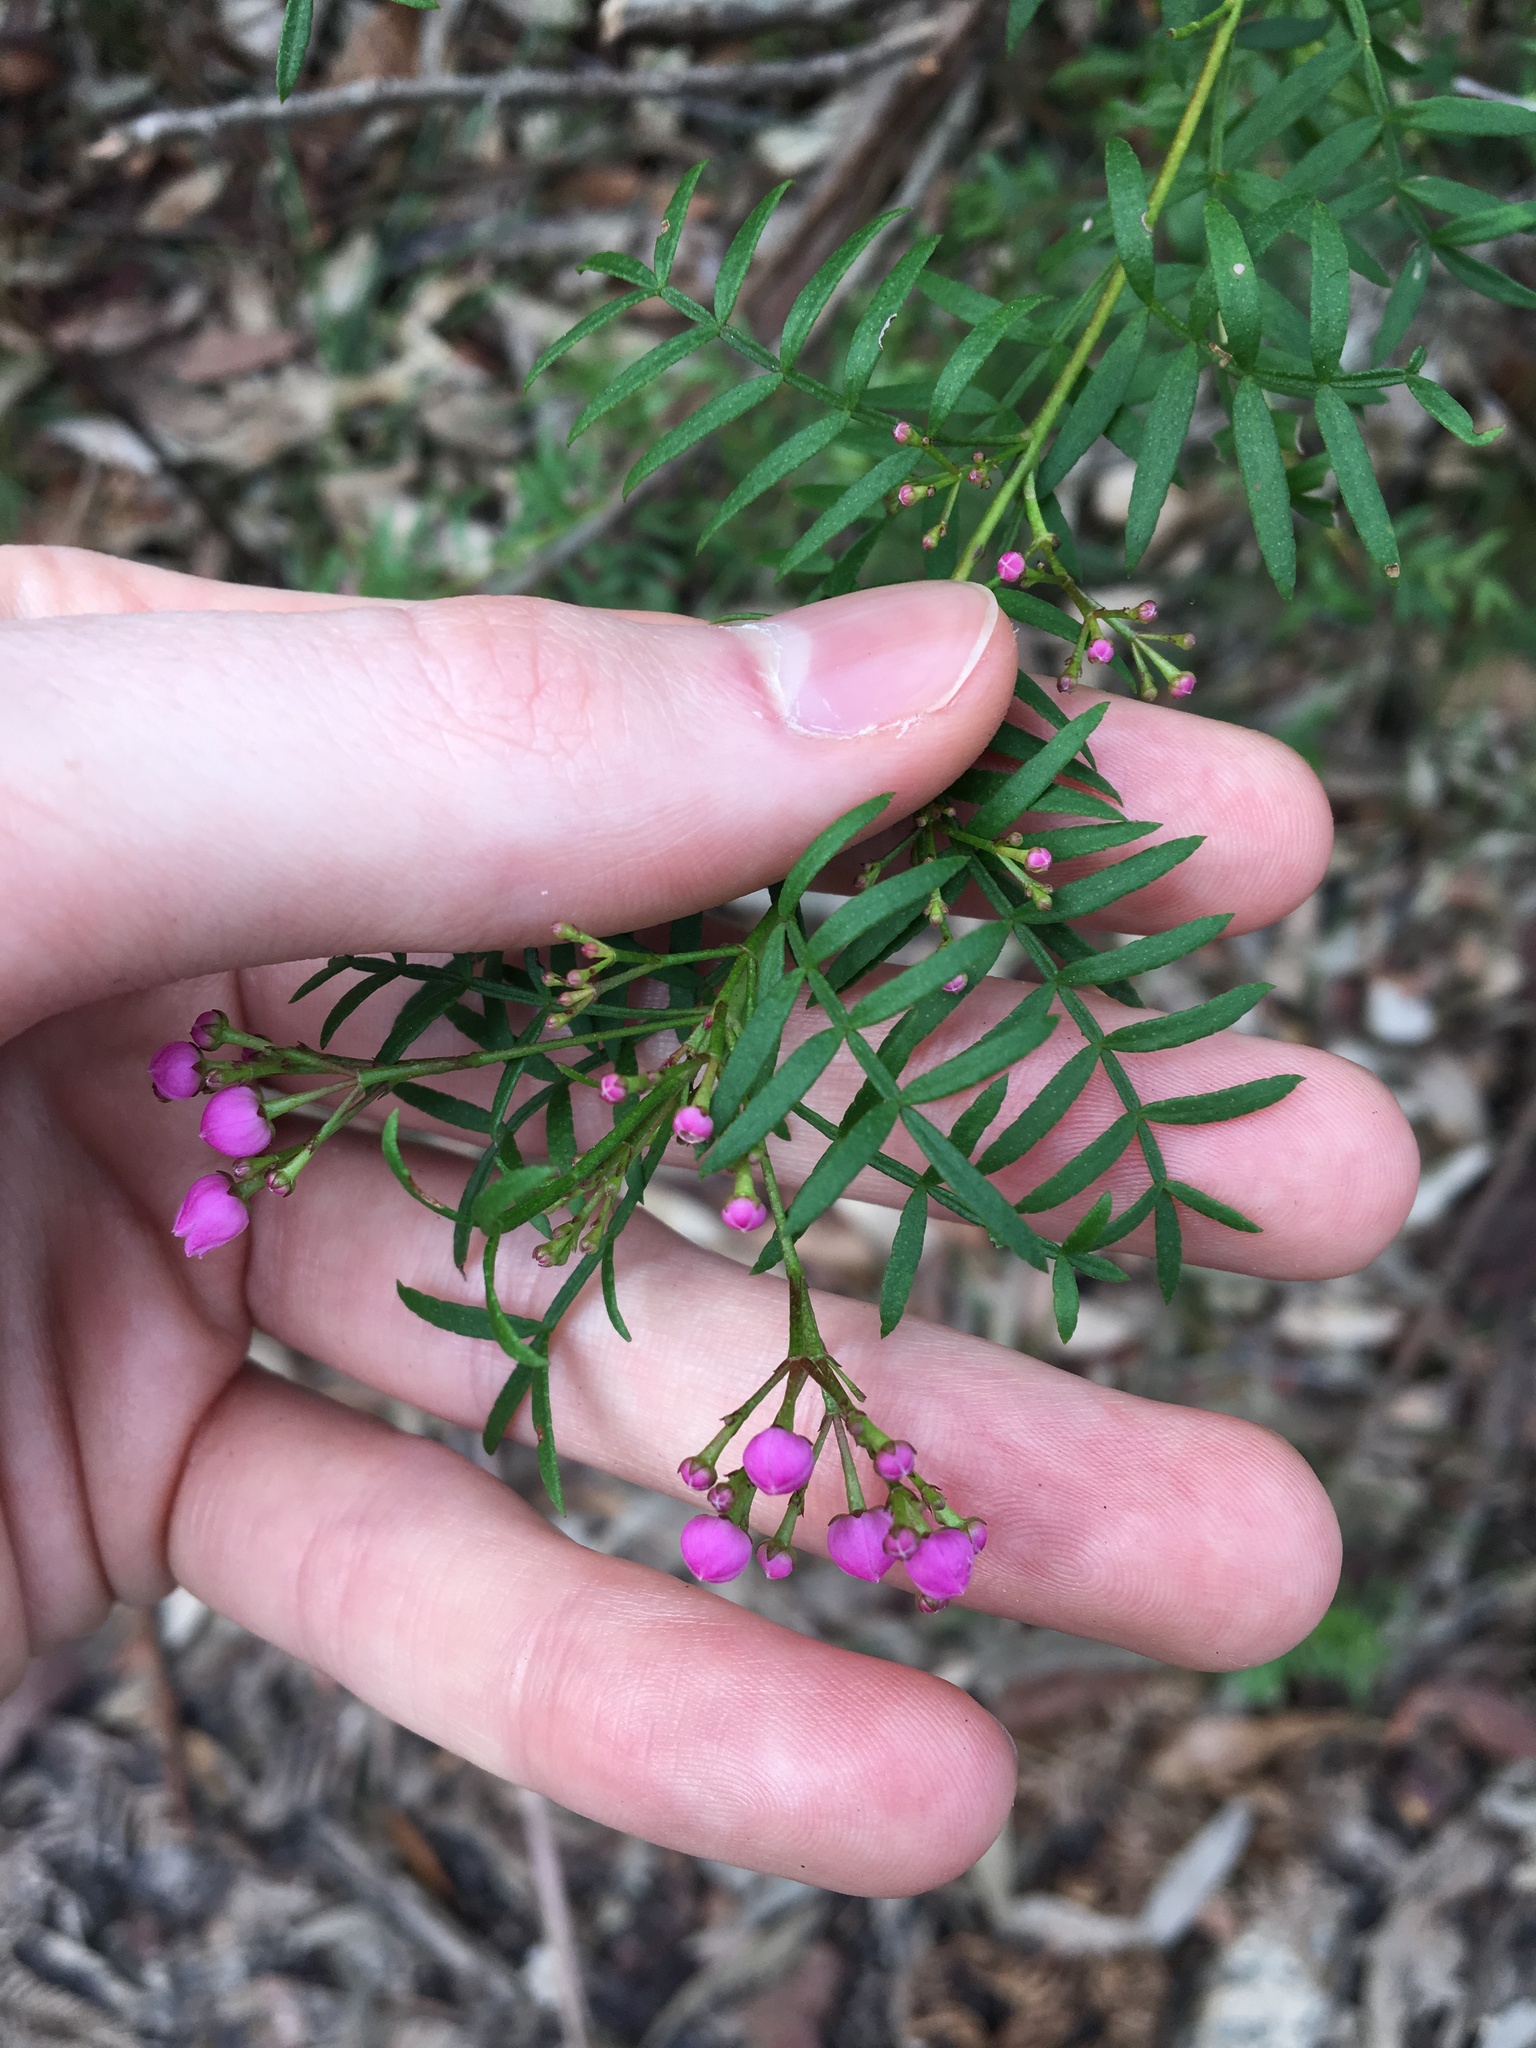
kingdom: Plantae
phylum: Tracheophyta
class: Magnoliopsida
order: Sapindales
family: Rutaceae
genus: Boronia
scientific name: Boronia pinnata
